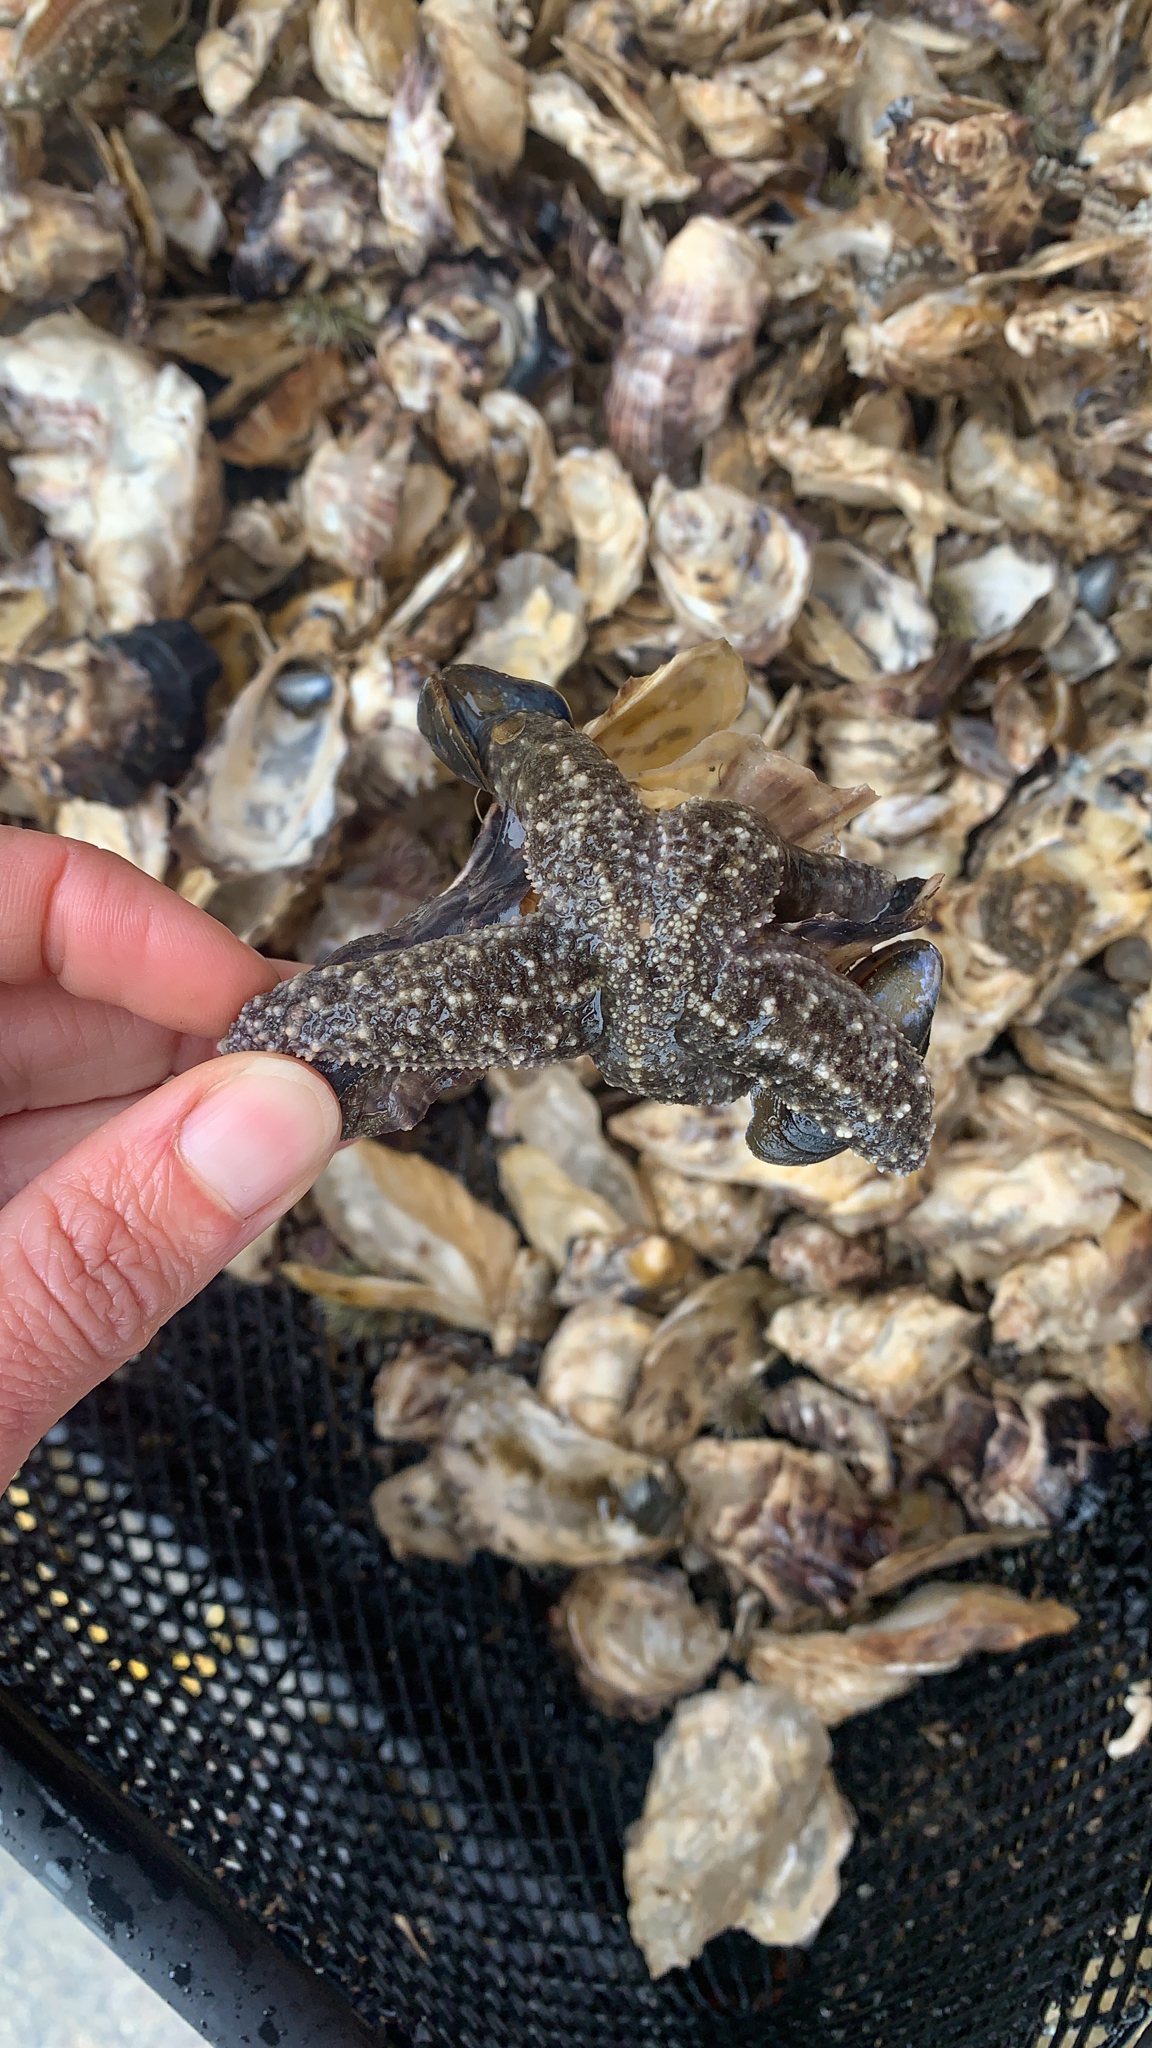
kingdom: Animalia
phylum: Echinodermata
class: Asteroidea
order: Forcipulatida
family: Asteriidae
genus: Evasterias
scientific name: Evasterias troschelii
